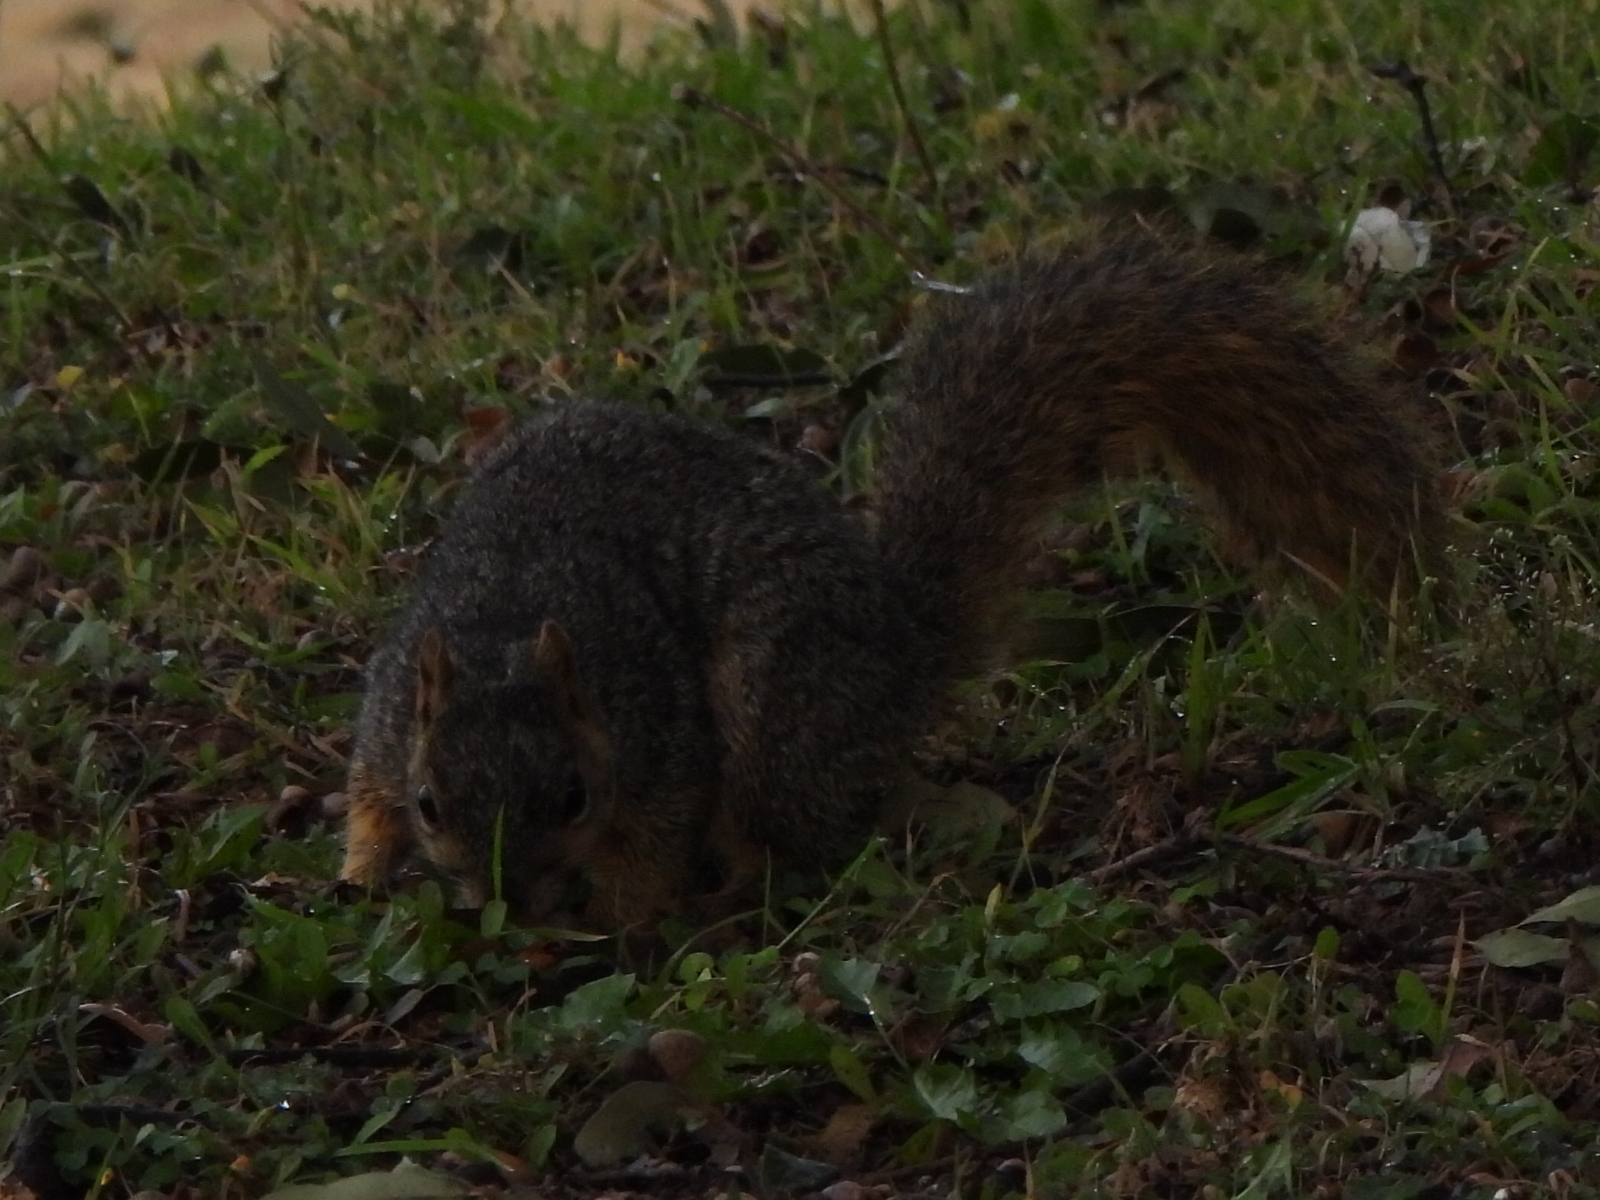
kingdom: Animalia
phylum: Chordata
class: Mammalia
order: Rodentia
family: Sciuridae
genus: Sciurus
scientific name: Sciurus niger
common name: Fox squirrel
